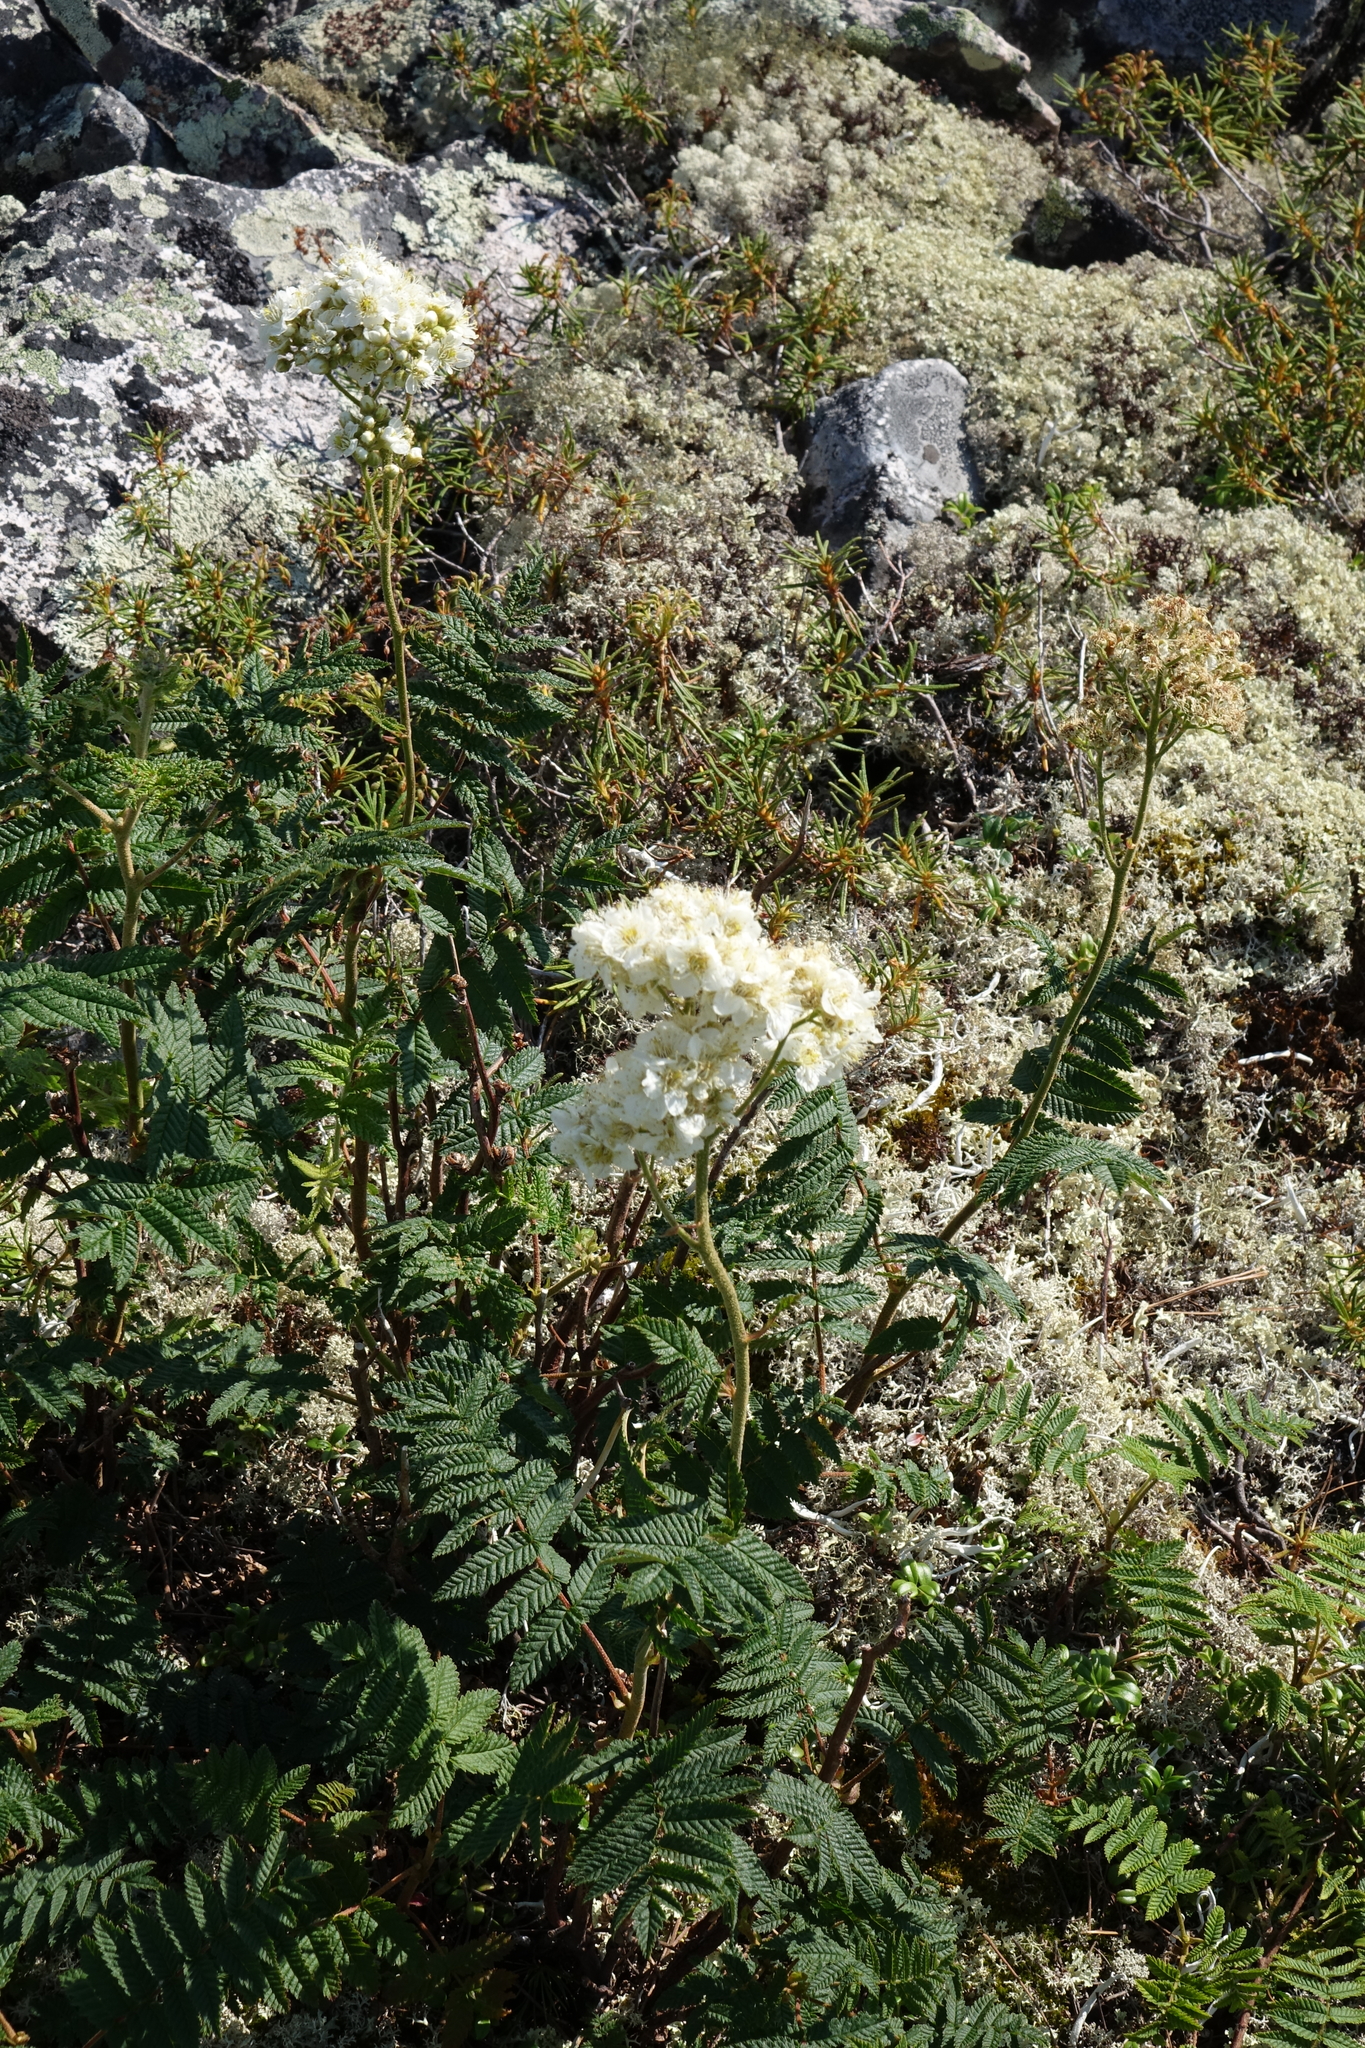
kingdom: Plantae
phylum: Tracheophyta
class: Magnoliopsida
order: Rosales
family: Rosaceae
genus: Sorbaria
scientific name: Sorbaria pallasii
